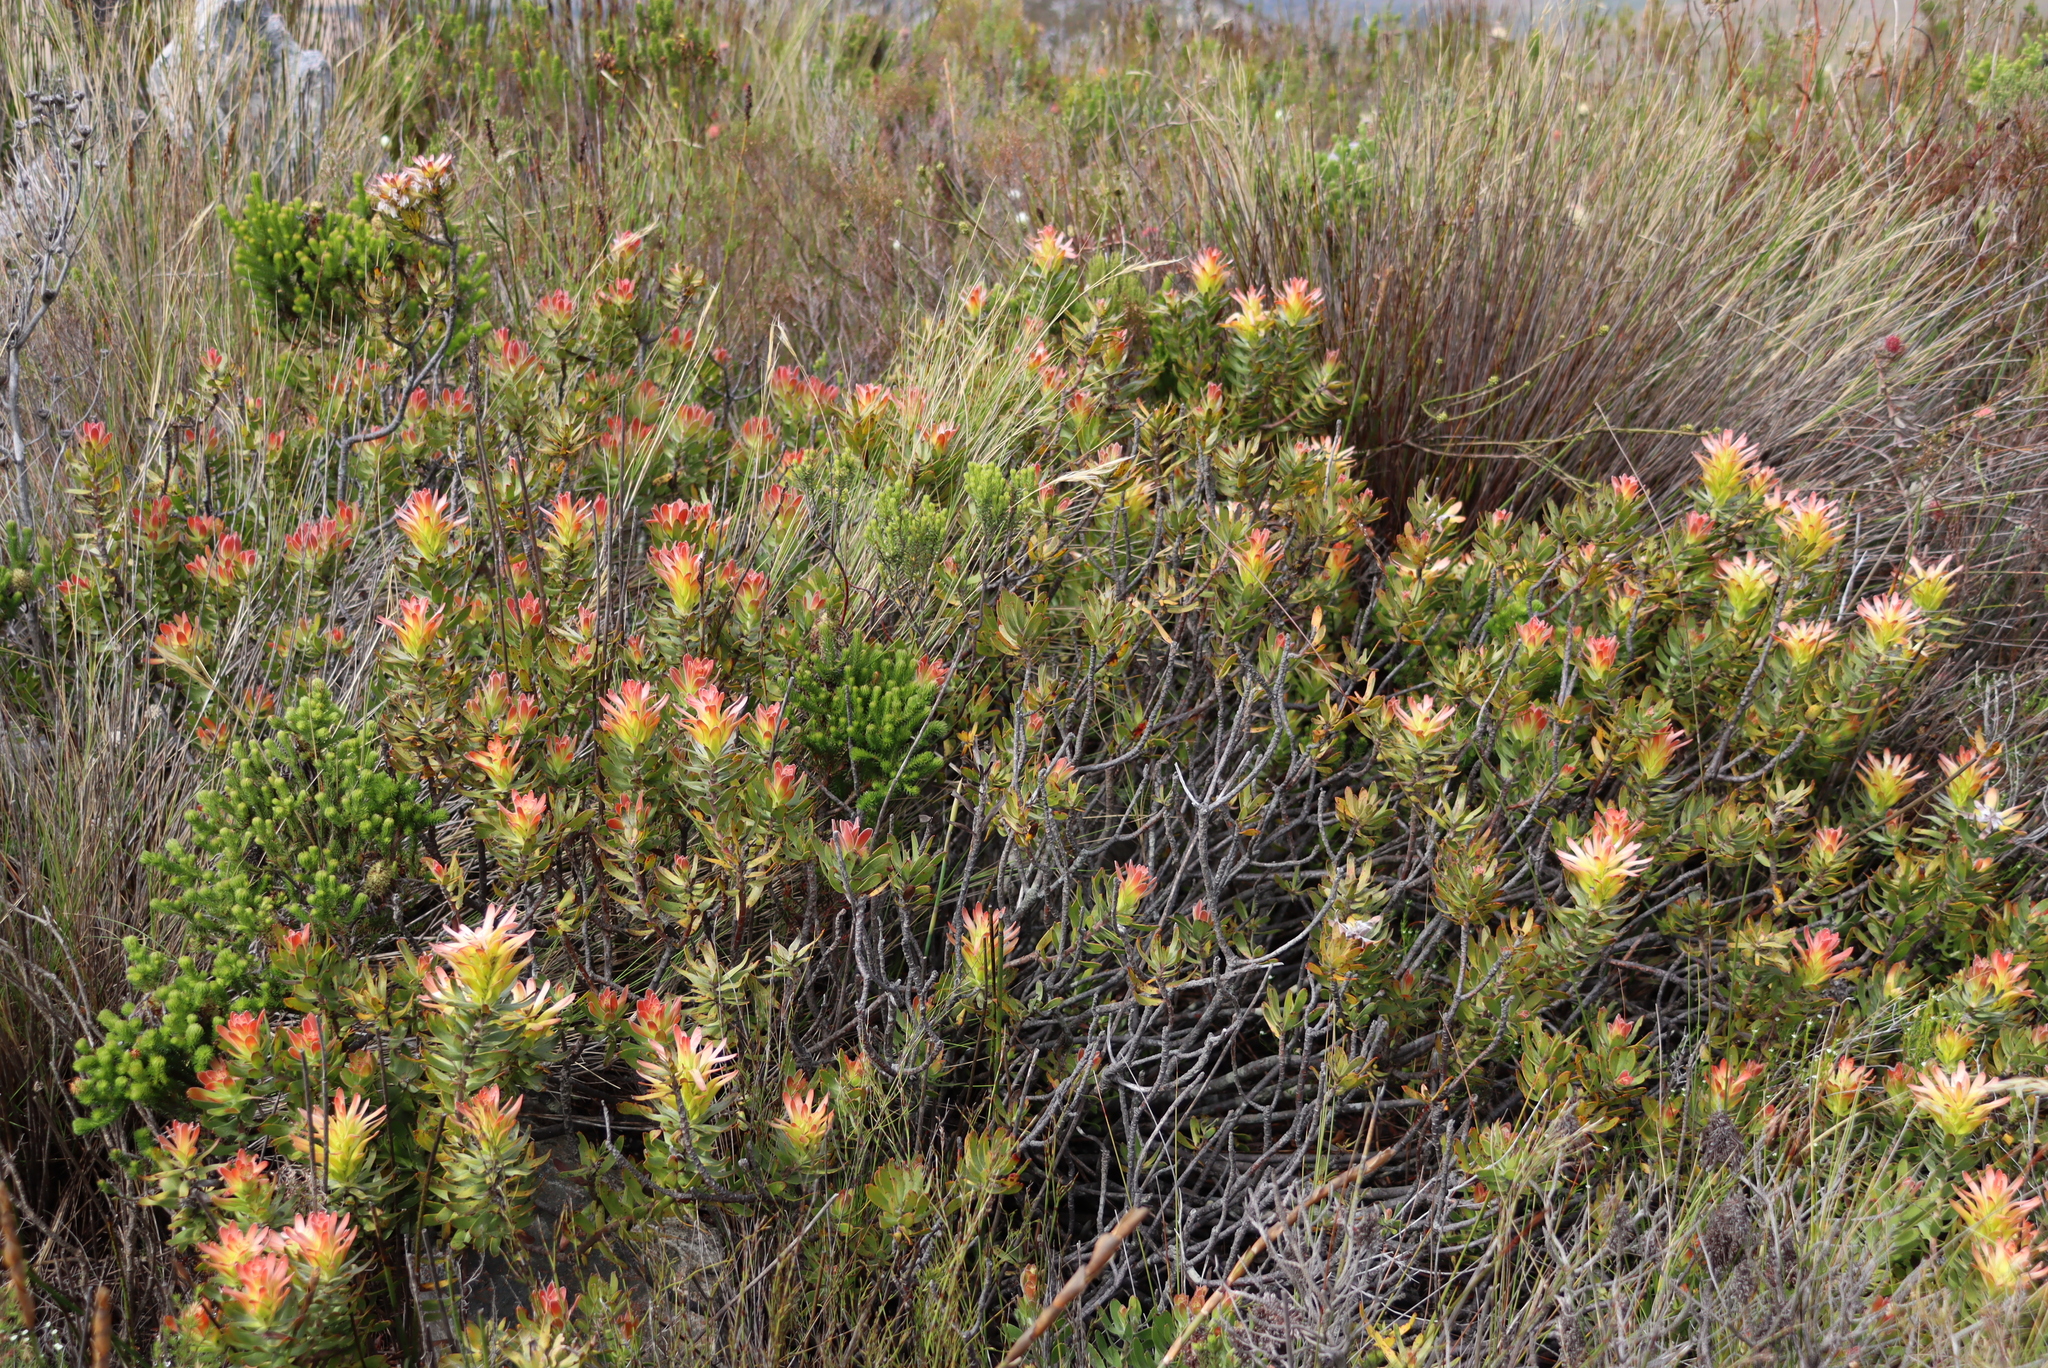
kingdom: Plantae
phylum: Tracheophyta
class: Magnoliopsida
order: Proteales
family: Proteaceae
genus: Mimetes
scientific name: Mimetes cucullatus
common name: Common pagoda
